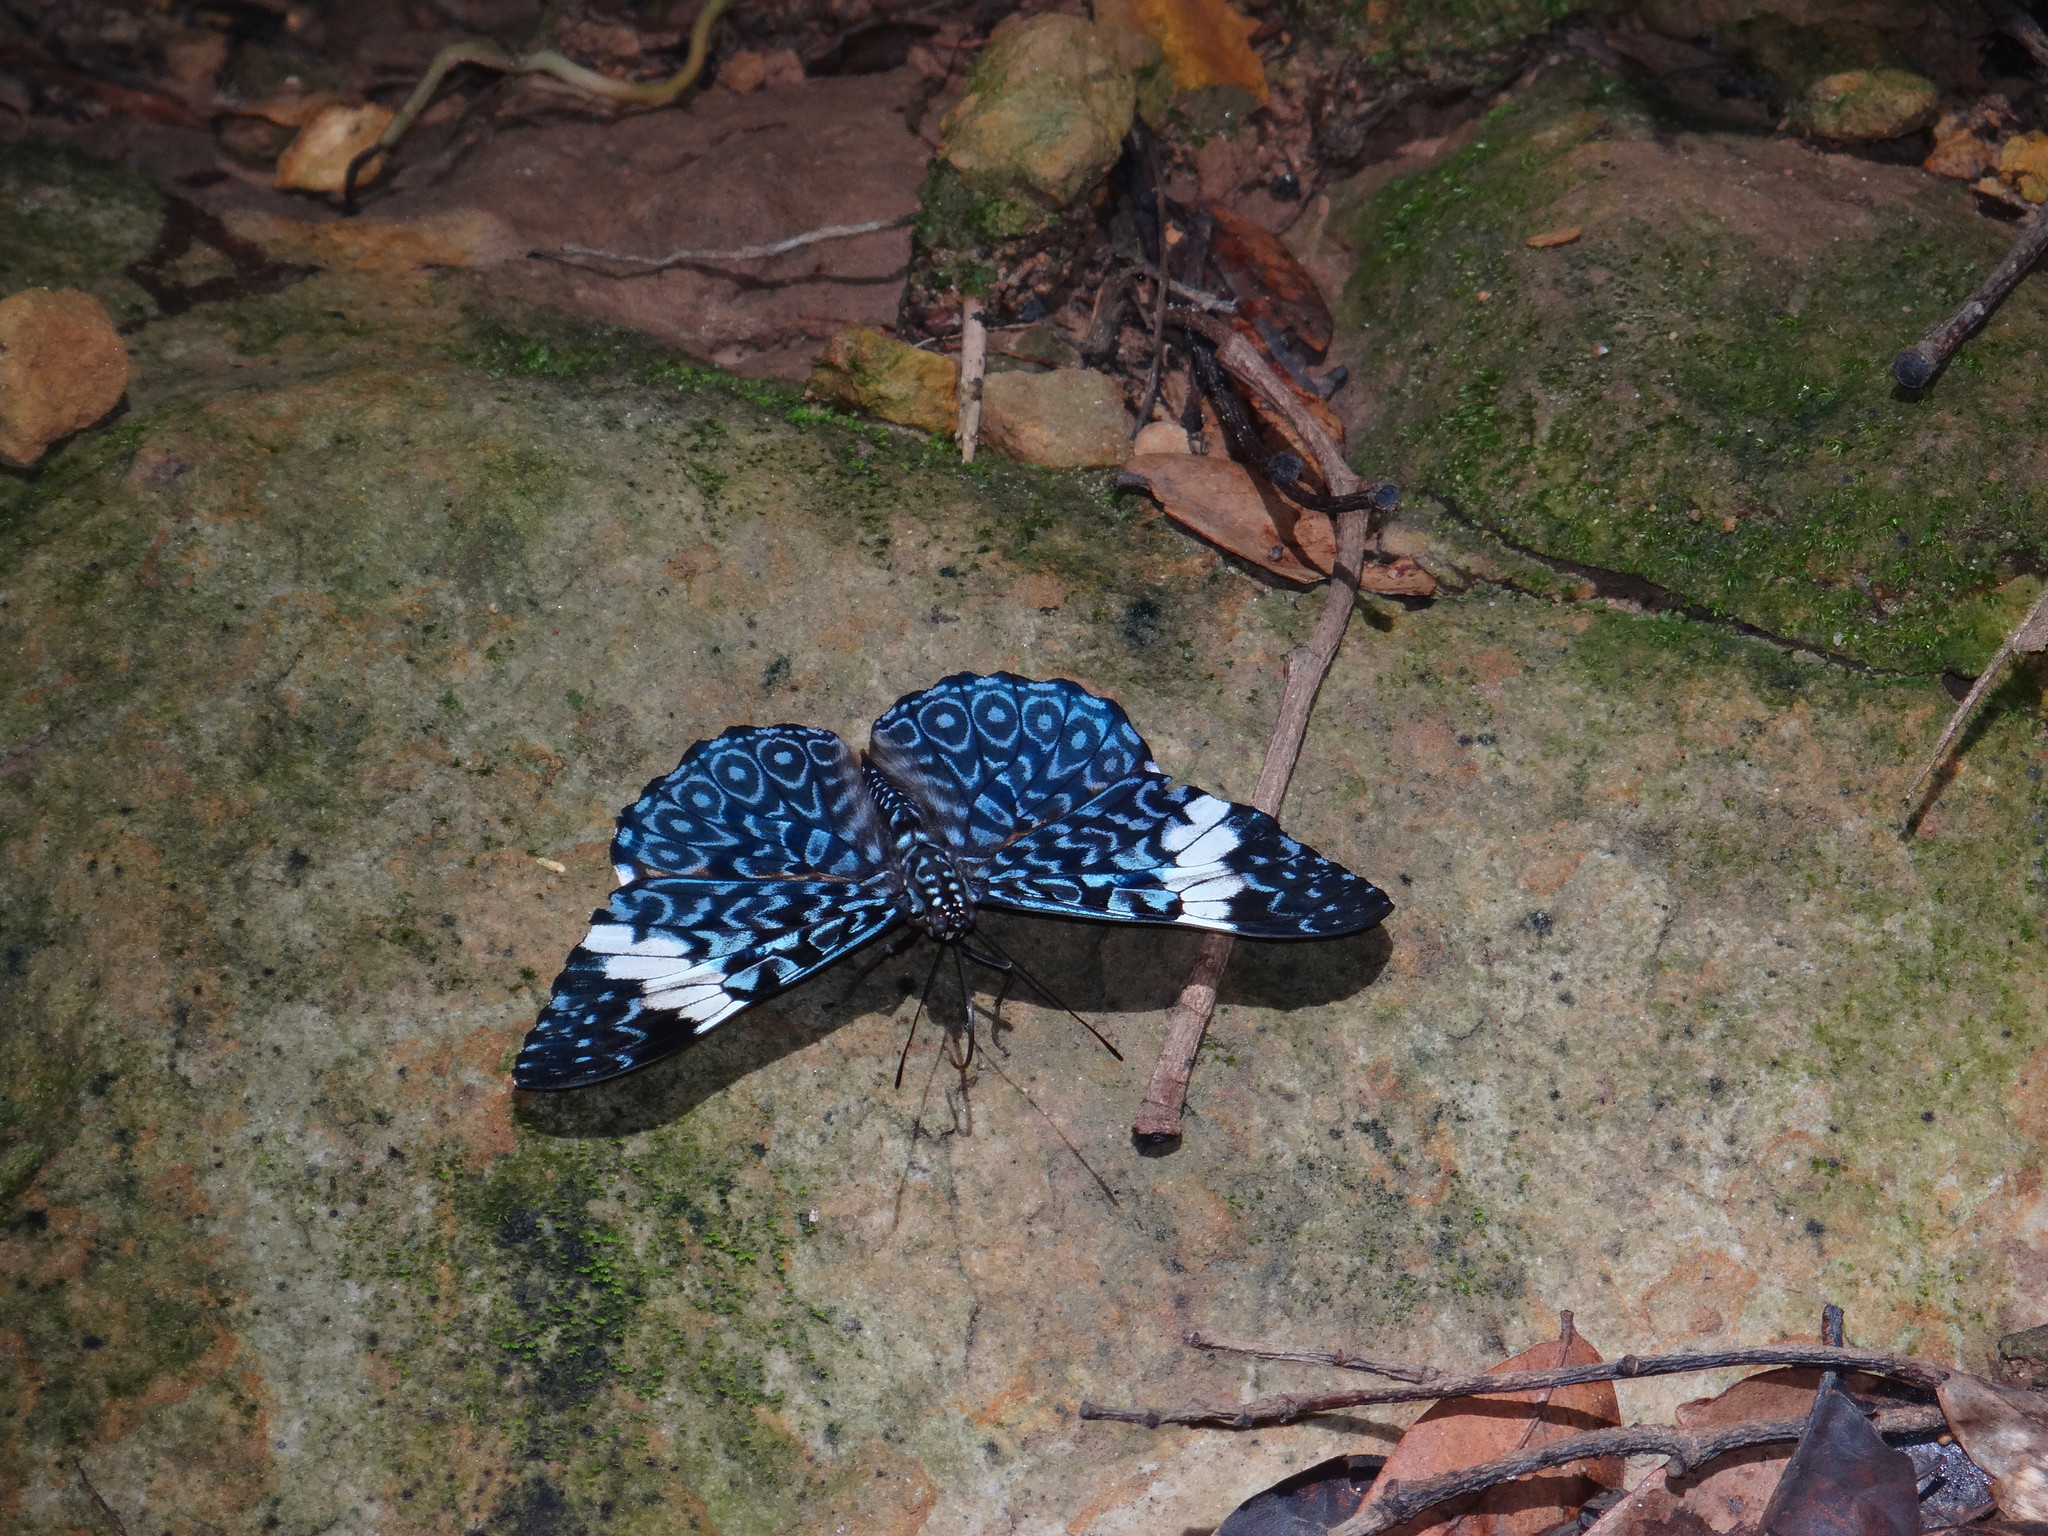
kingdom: Animalia
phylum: Arthropoda
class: Insecta
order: Lepidoptera
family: Nymphalidae
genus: Hamadryas
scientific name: Hamadryas amphinome
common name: Red cracker
